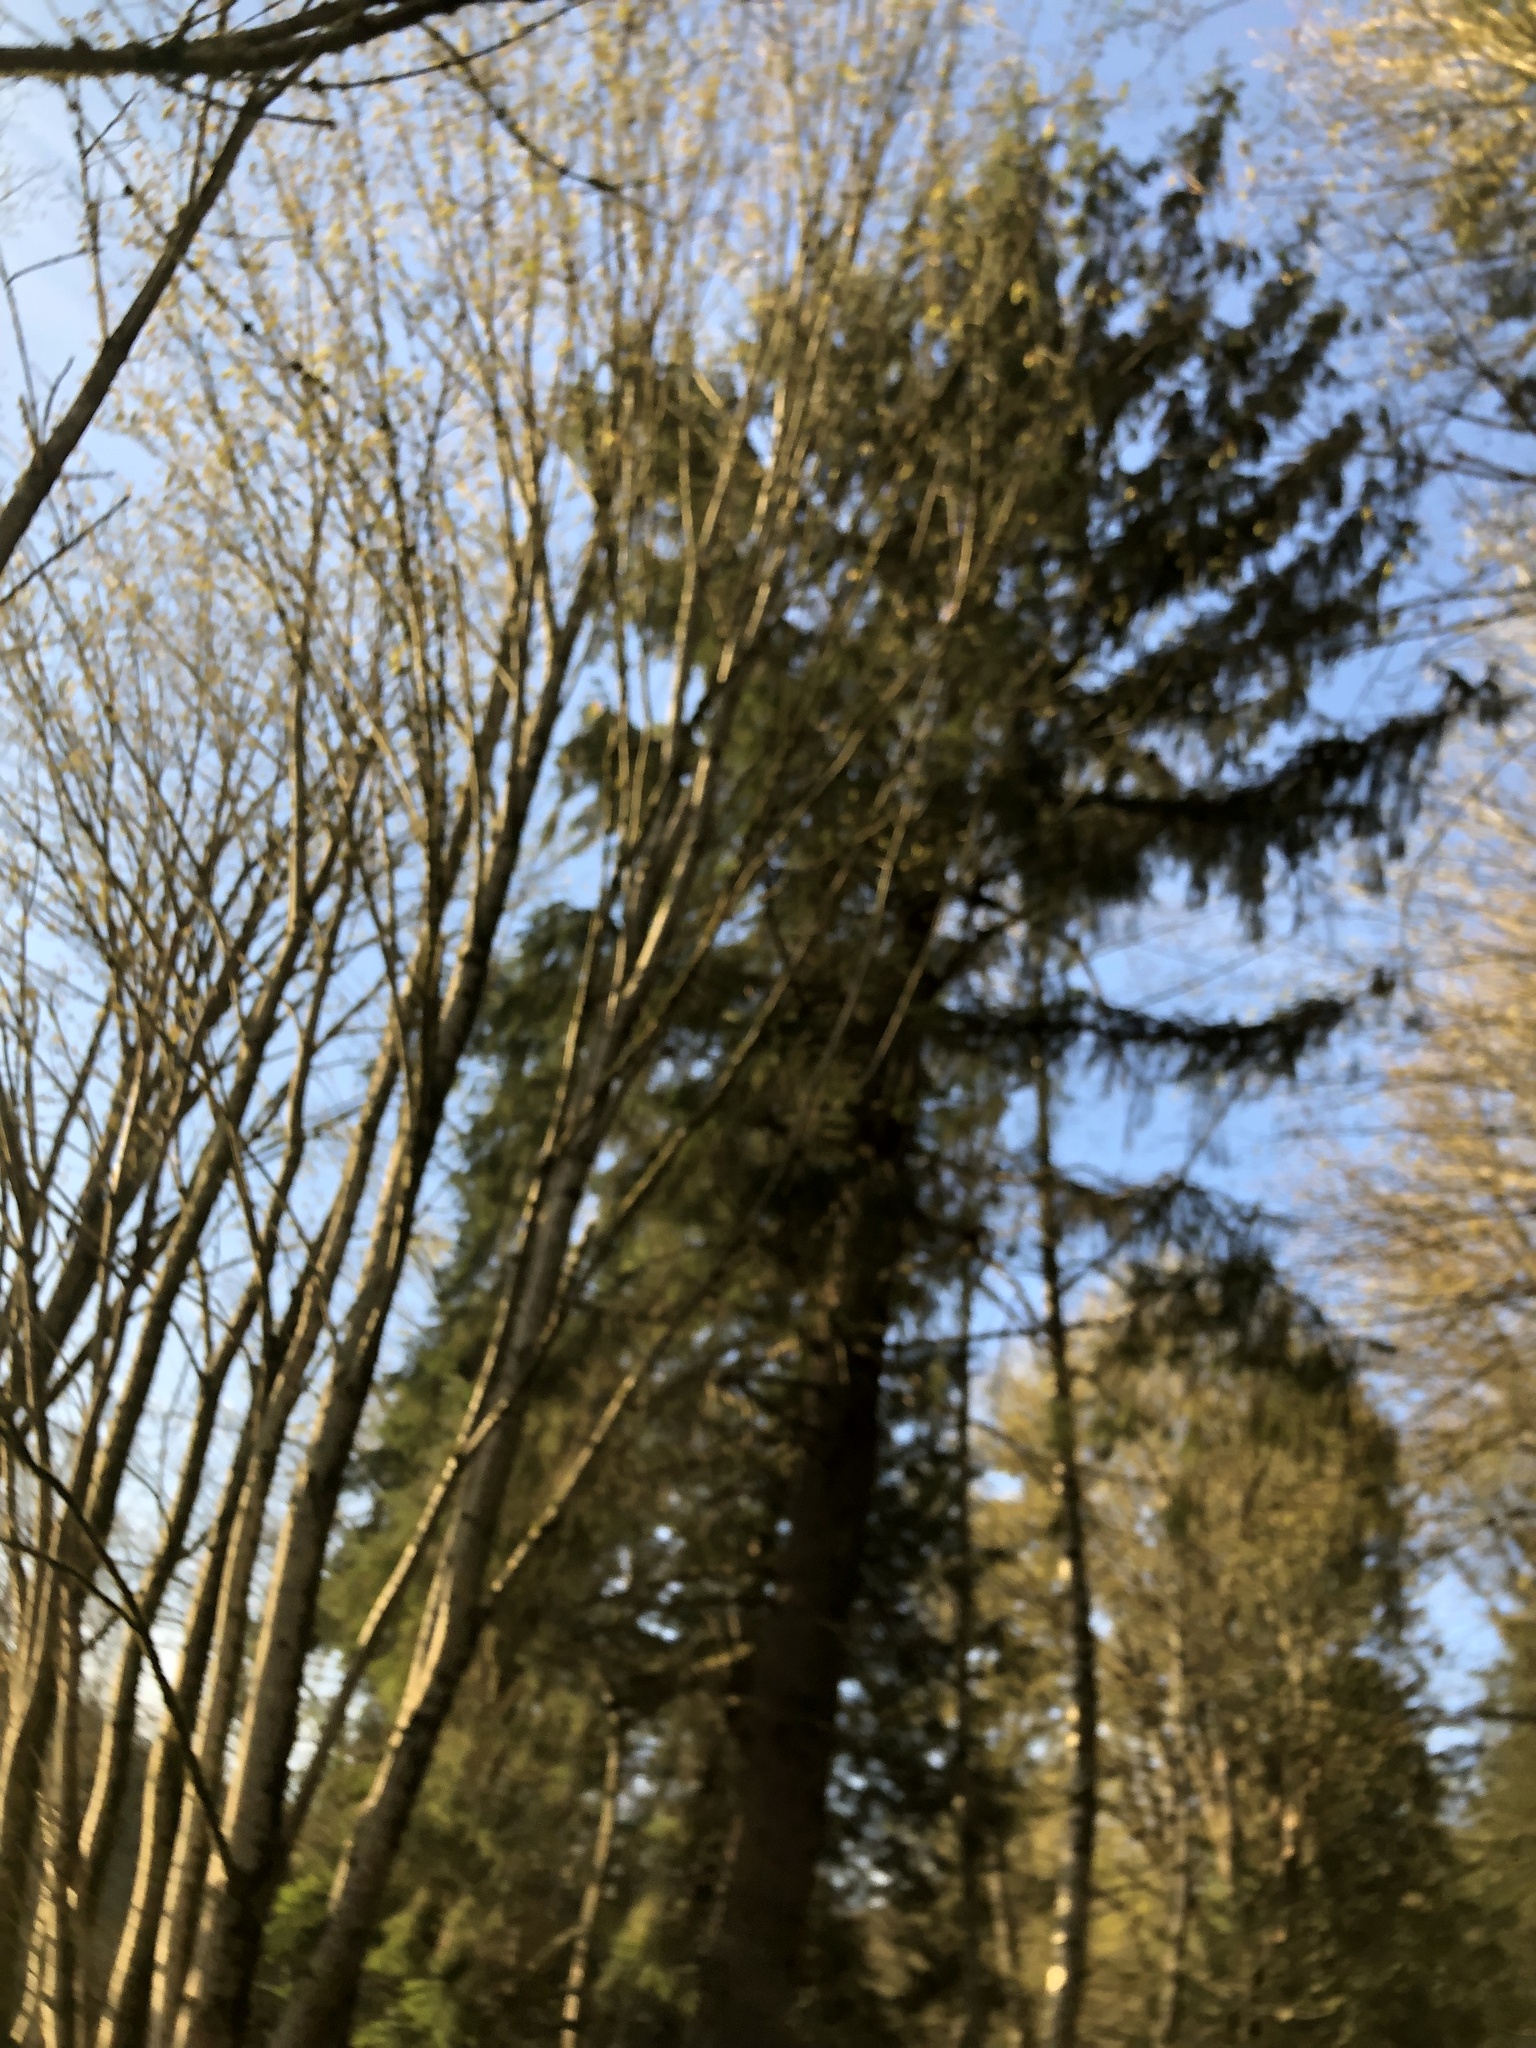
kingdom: Plantae
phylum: Tracheophyta
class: Pinopsida
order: Pinales
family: Pinaceae
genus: Picea
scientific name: Picea sitchensis
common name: Sitka spruce
